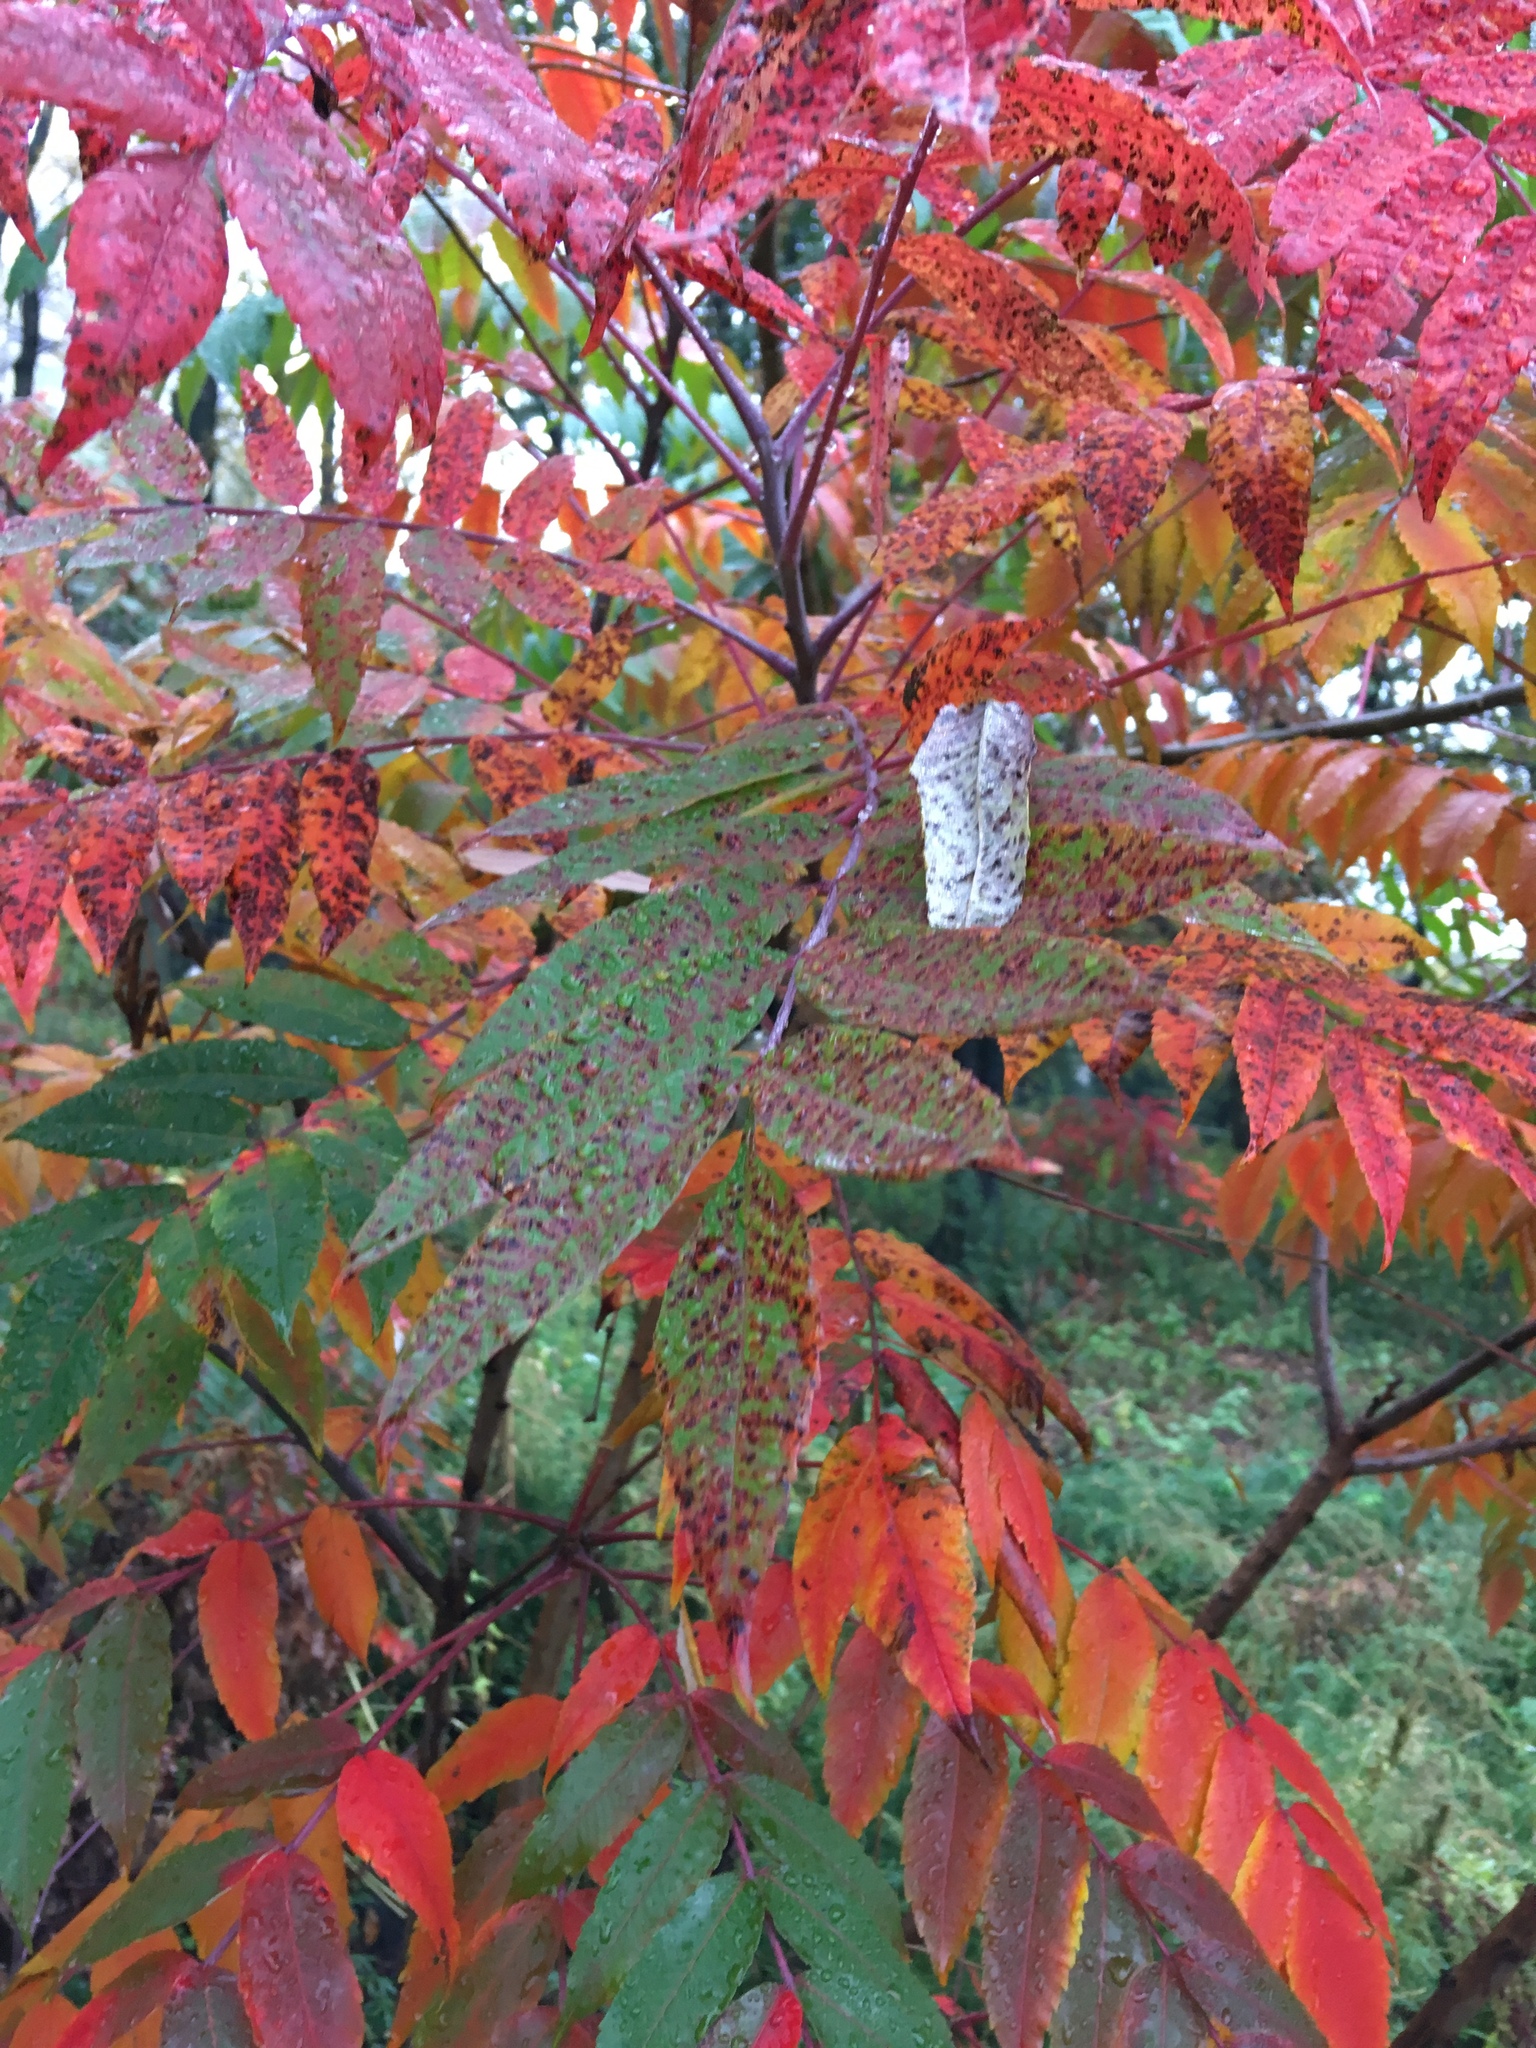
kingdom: Plantae
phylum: Tracheophyta
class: Magnoliopsida
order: Sapindales
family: Anacardiaceae
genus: Rhus
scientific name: Rhus glabra
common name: Scarlet sumac
